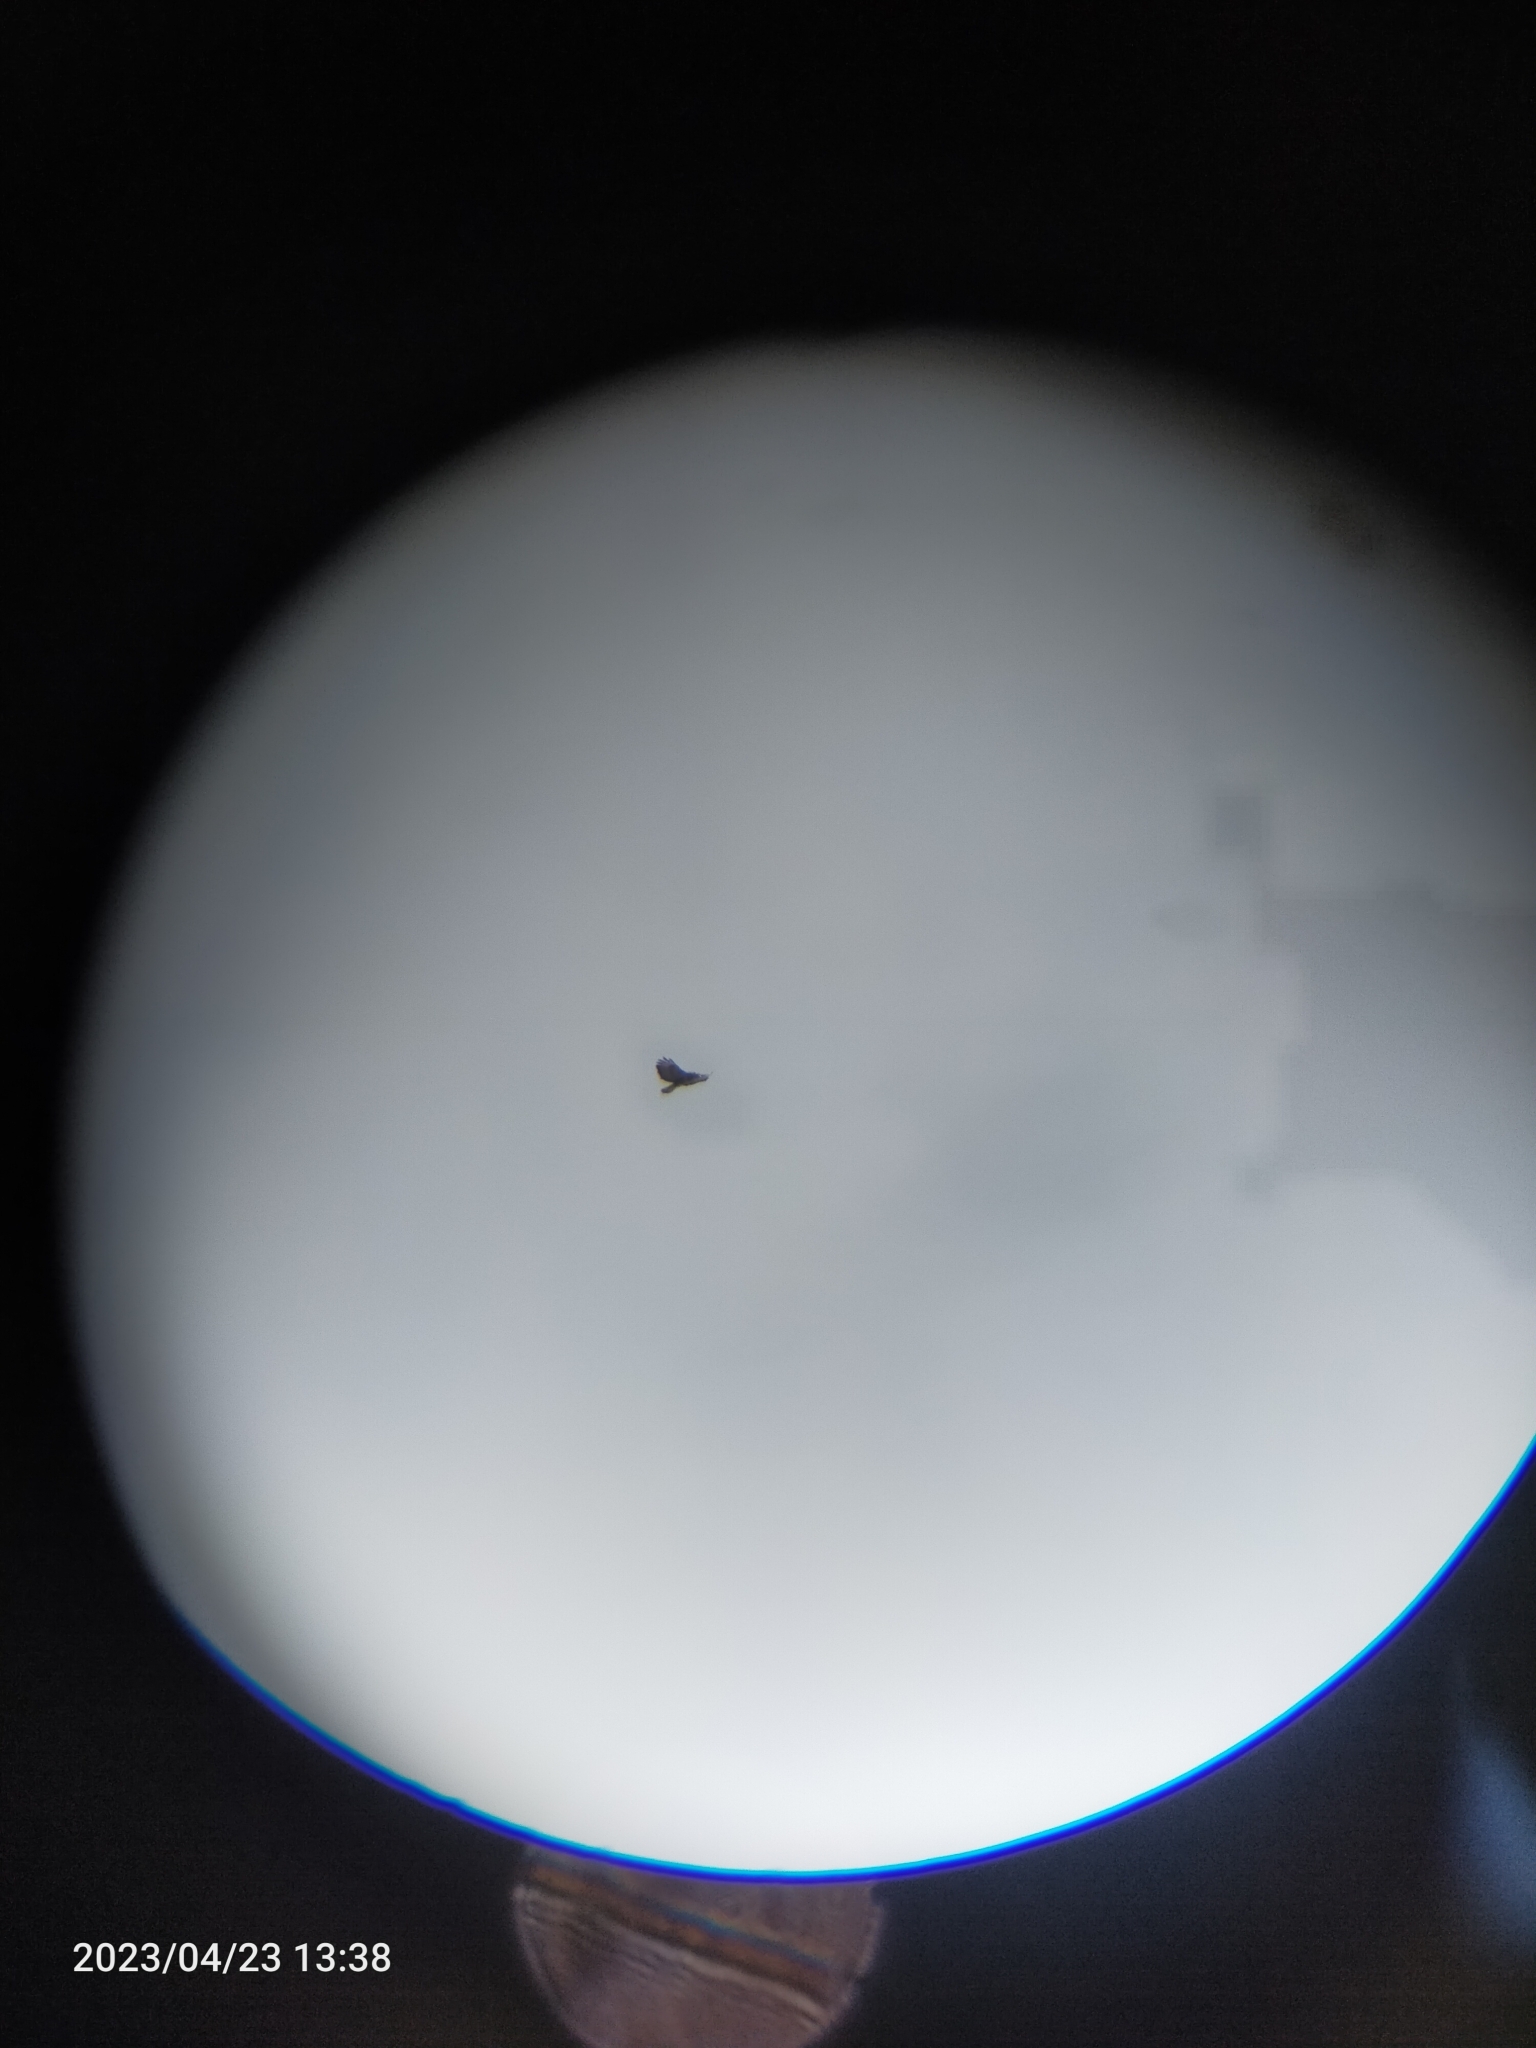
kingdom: Animalia
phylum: Chordata
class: Aves
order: Accipitriformes
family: Accipitridae
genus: Buteo
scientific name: Buteo buteo
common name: Common buzzard
